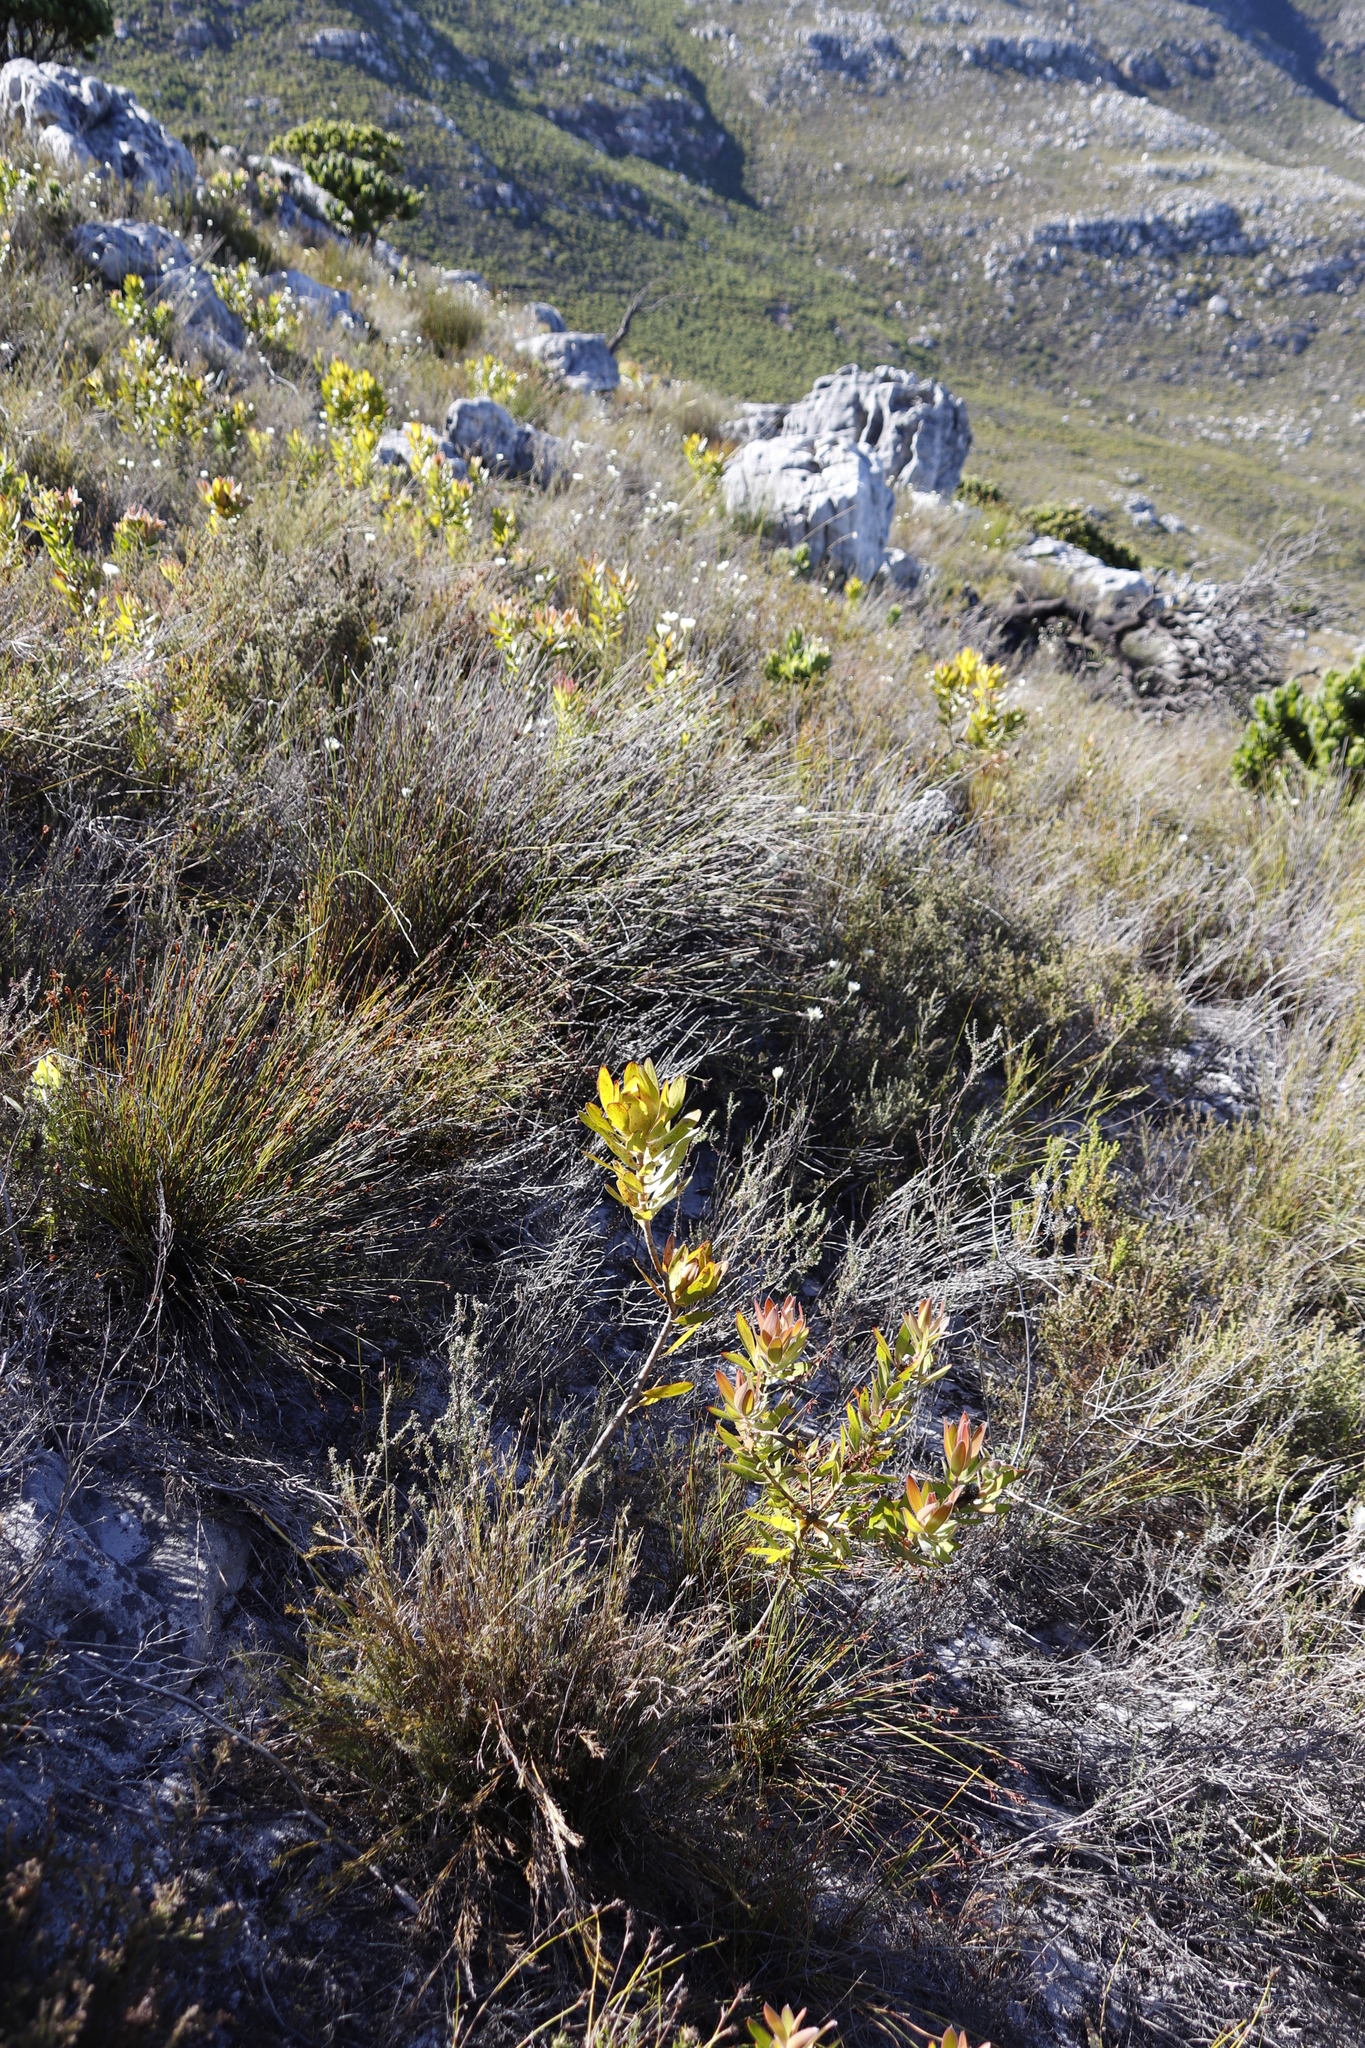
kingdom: Plantae
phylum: Tracheophyta
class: Magnoliopsida
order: Proteales
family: Proteaceae
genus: Leucadendron
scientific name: Leucadendron laureolum
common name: Golden sunshinebush
